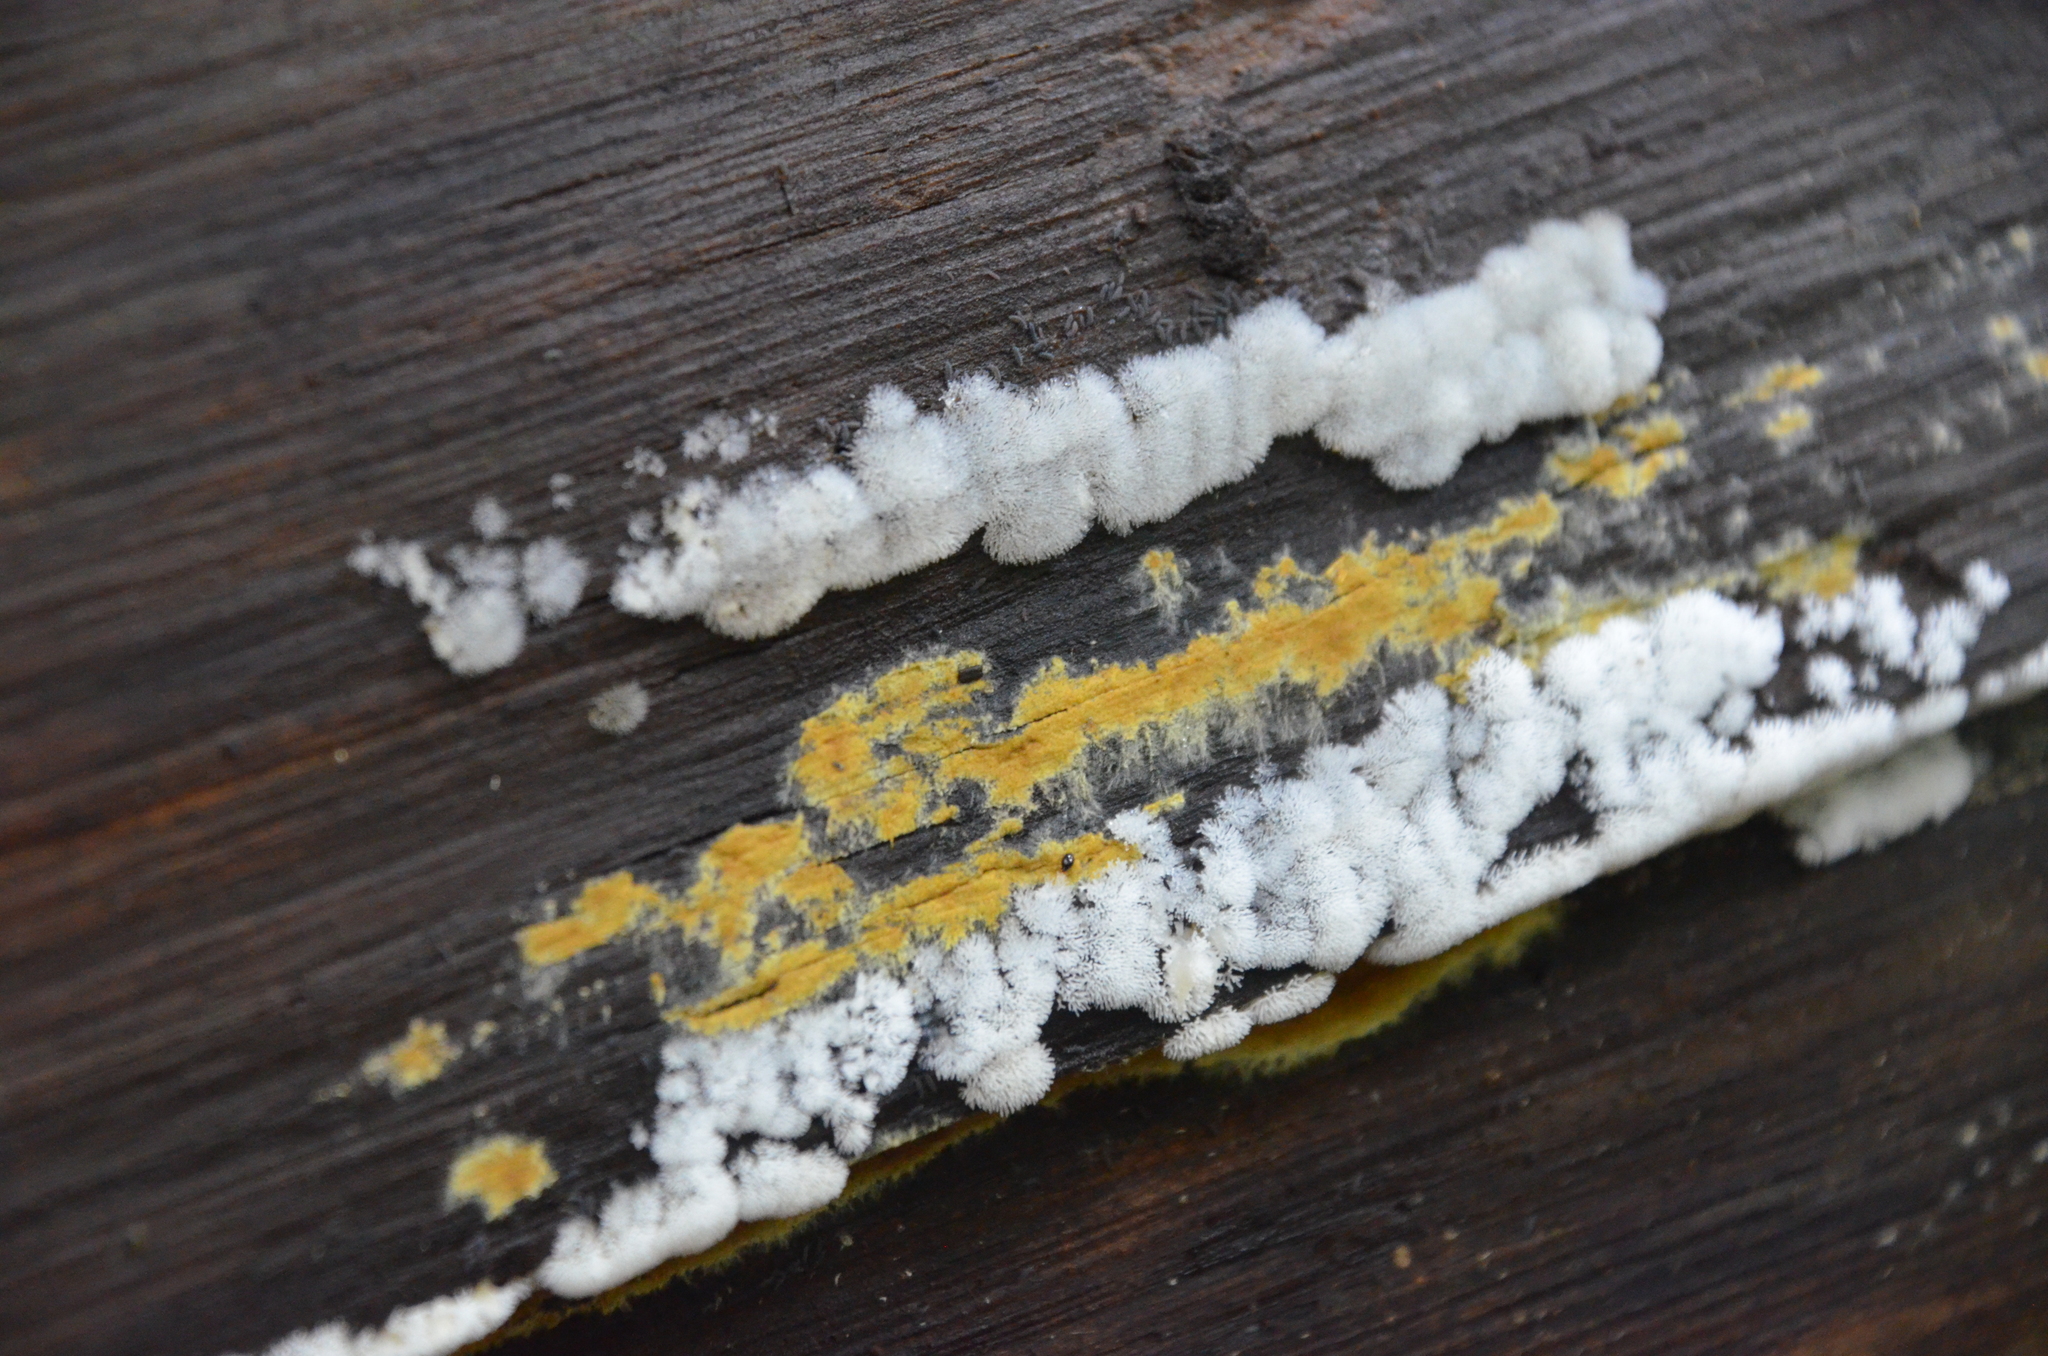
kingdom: Protozoa
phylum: Mycetozoa
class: Protosteliomycetes
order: Ceratiomyxales
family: Ceratiomyxaceae
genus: Ceratiomyxa
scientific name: Ceratiomyxa fruticulosa
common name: Honeycomb coral slime mold
